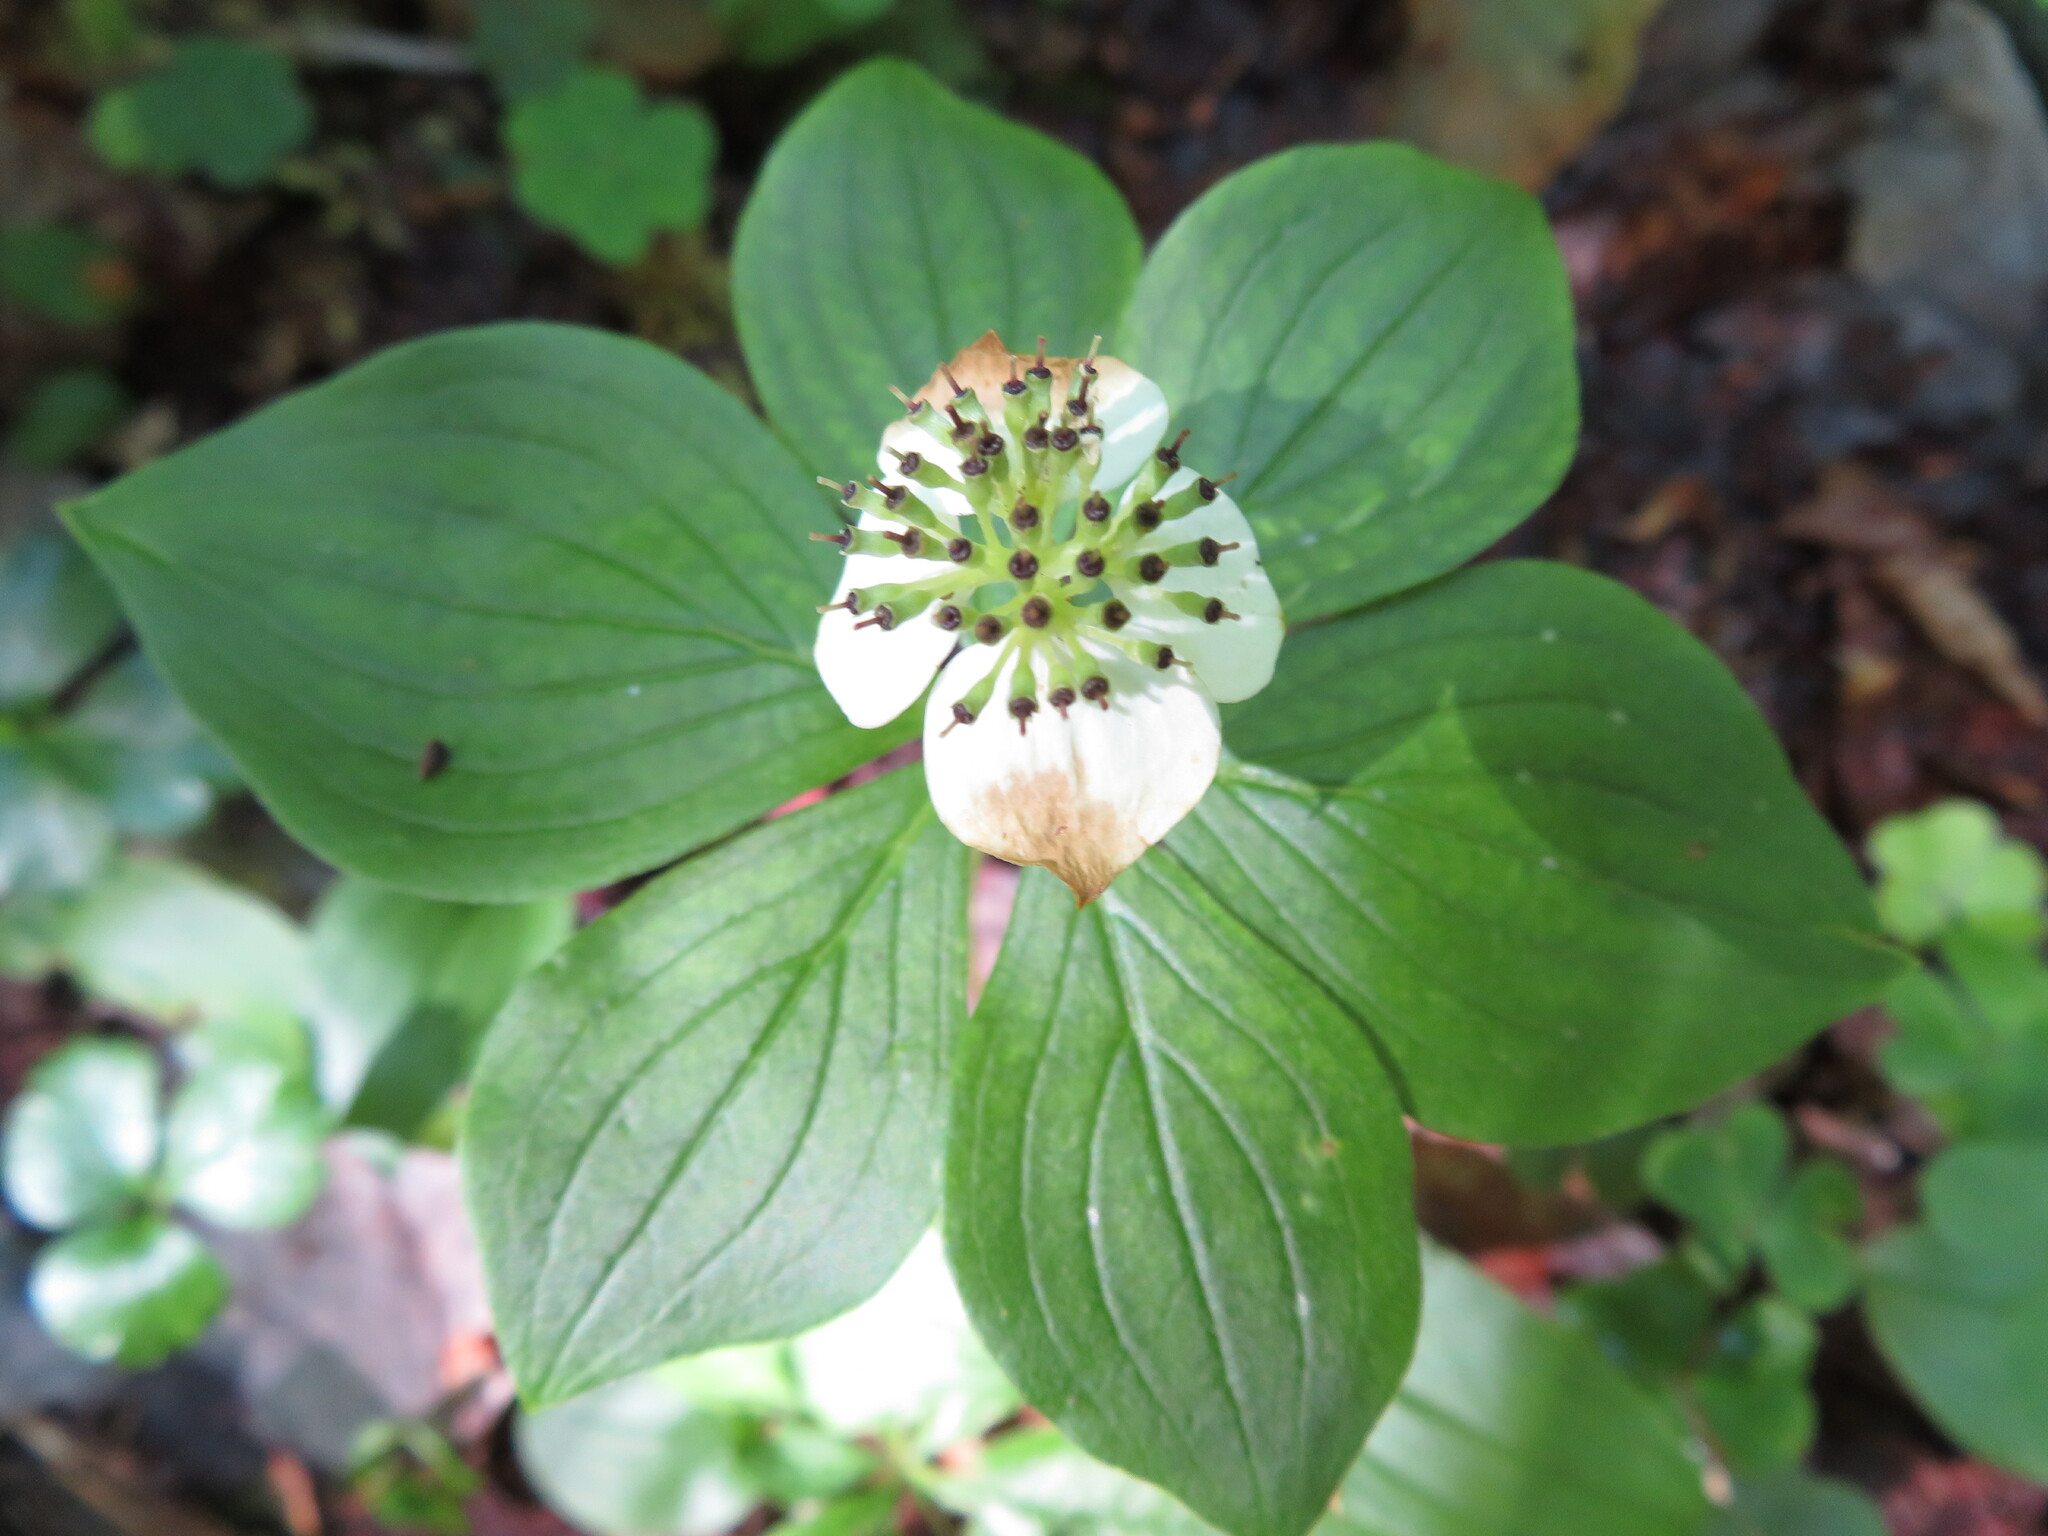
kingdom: Plantae
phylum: Tracheophyta
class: Magnoliopsida
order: Cornales
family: Cornaceae
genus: Cornus
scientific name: Cornus canadensis
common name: Creeping dogwood
